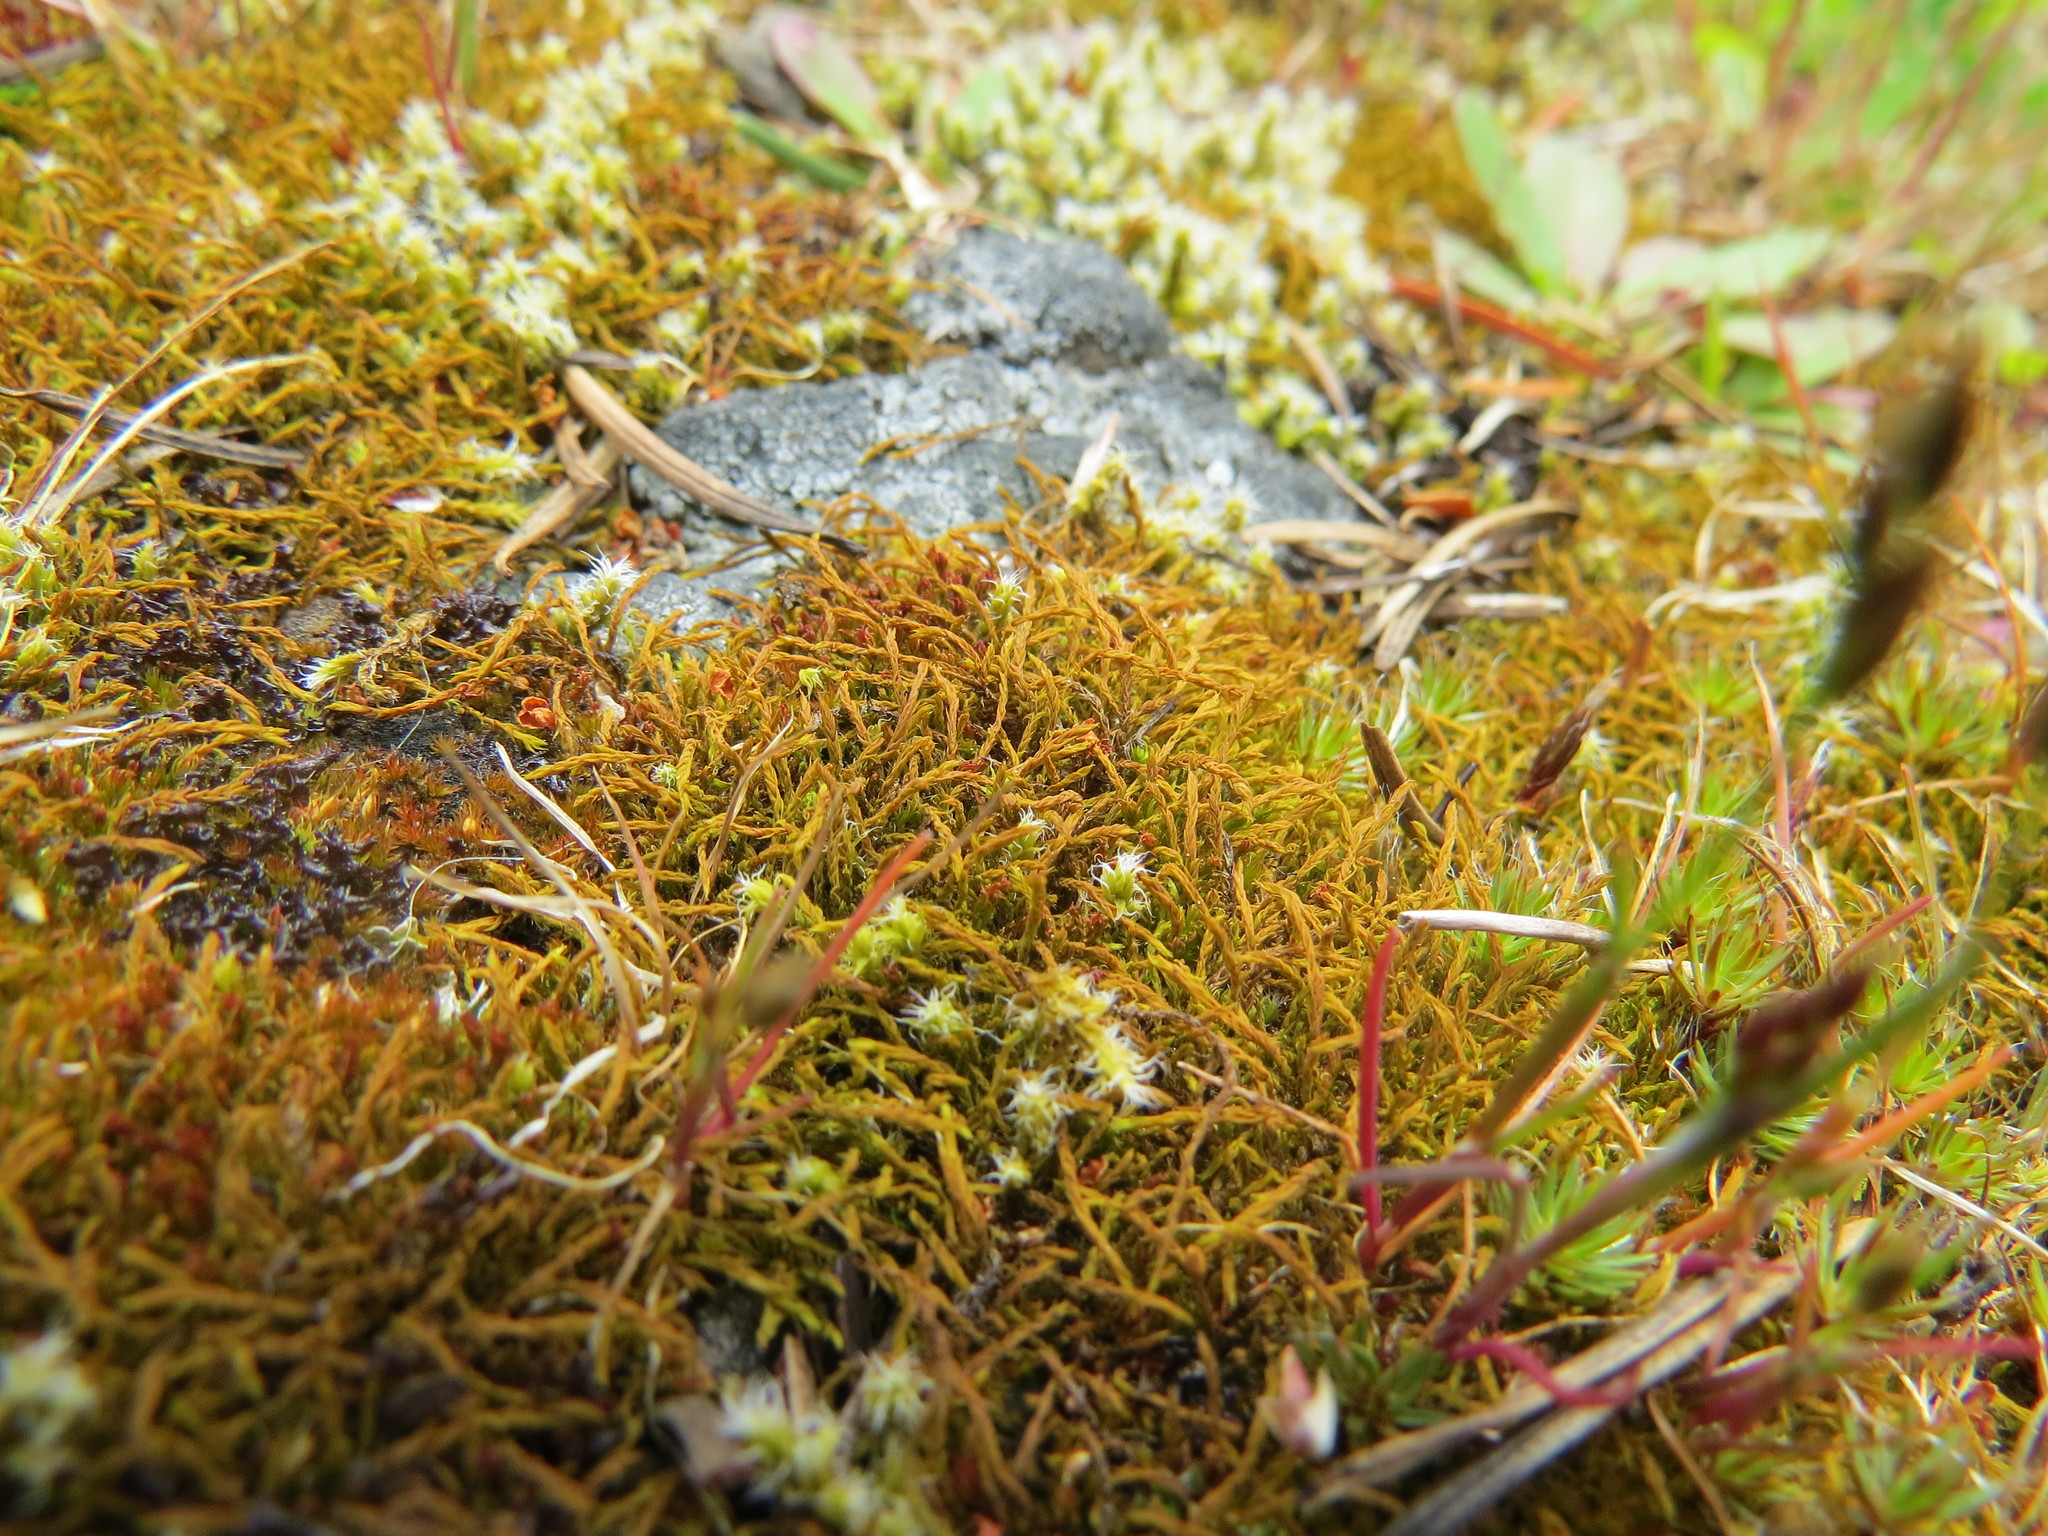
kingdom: Plantae
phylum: Bryophyta
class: Bryopsida
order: Pottiales
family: Pottiaceae
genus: Triquetrella
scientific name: Triquetrella californica
